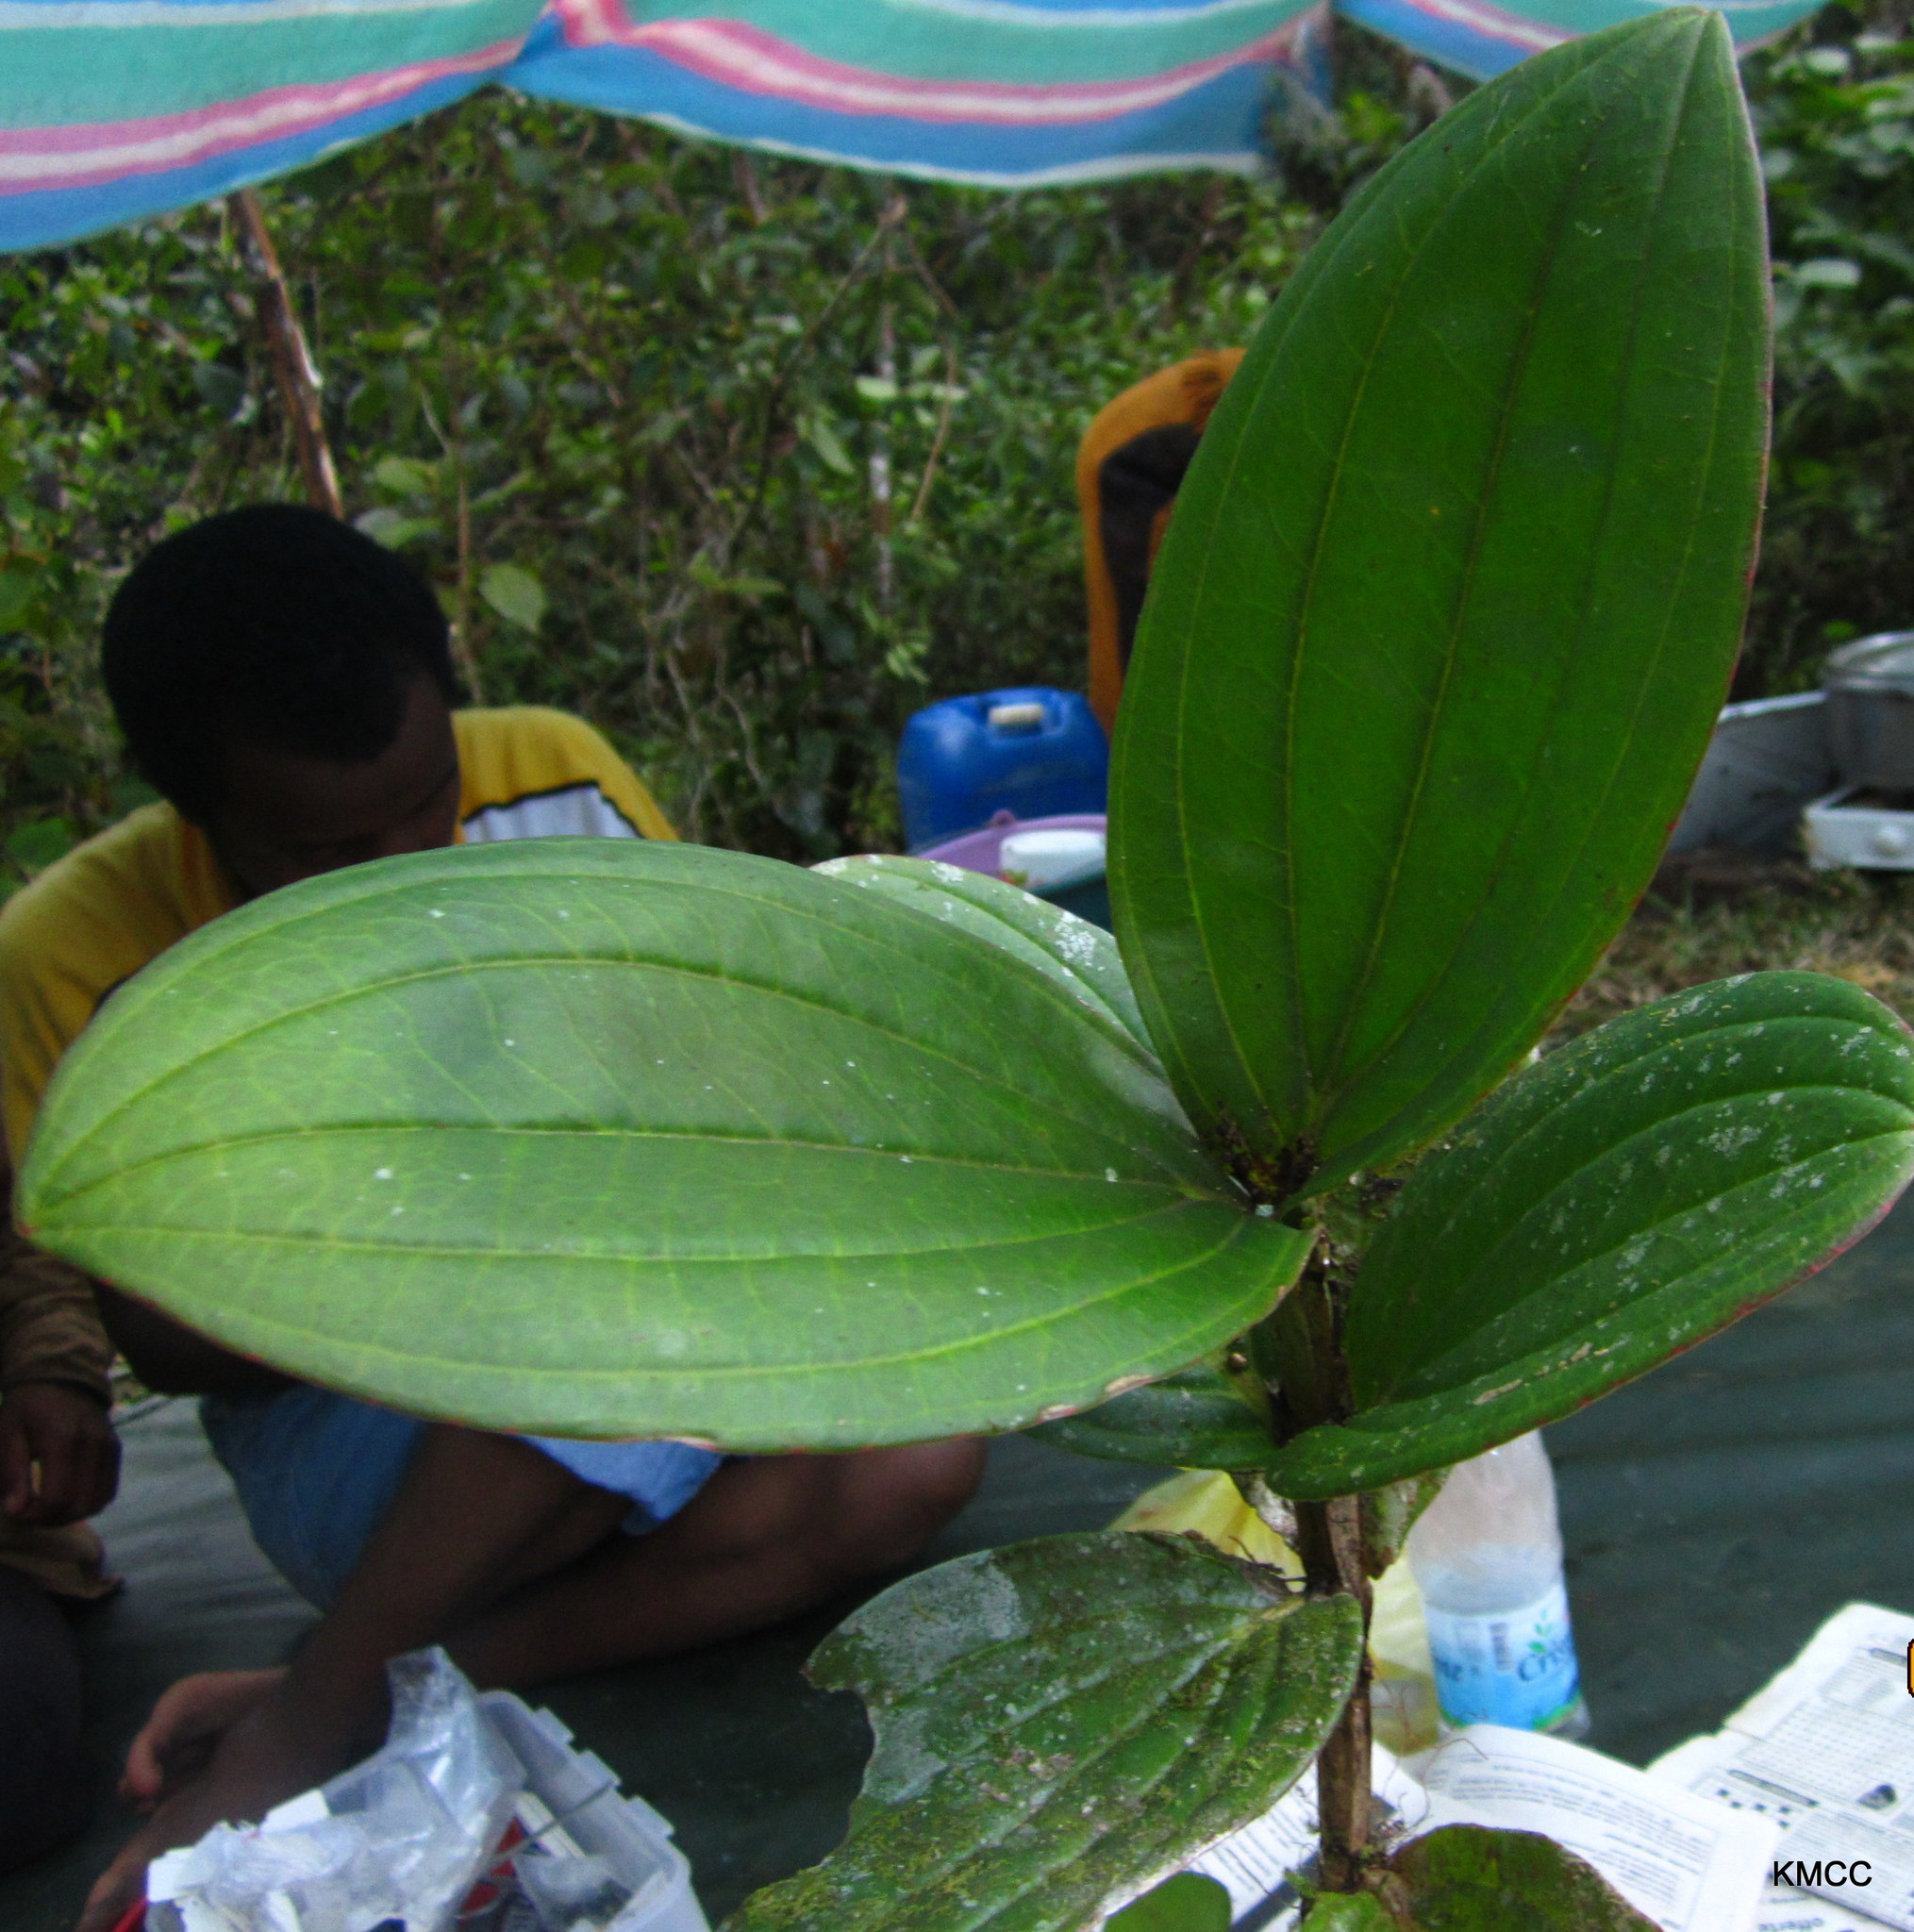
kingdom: Plantae
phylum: Tracheophyta
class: Magnoliopsida
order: Myrtales
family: Melastomataceae
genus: Medinilla
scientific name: Medinilla quadrangularis
